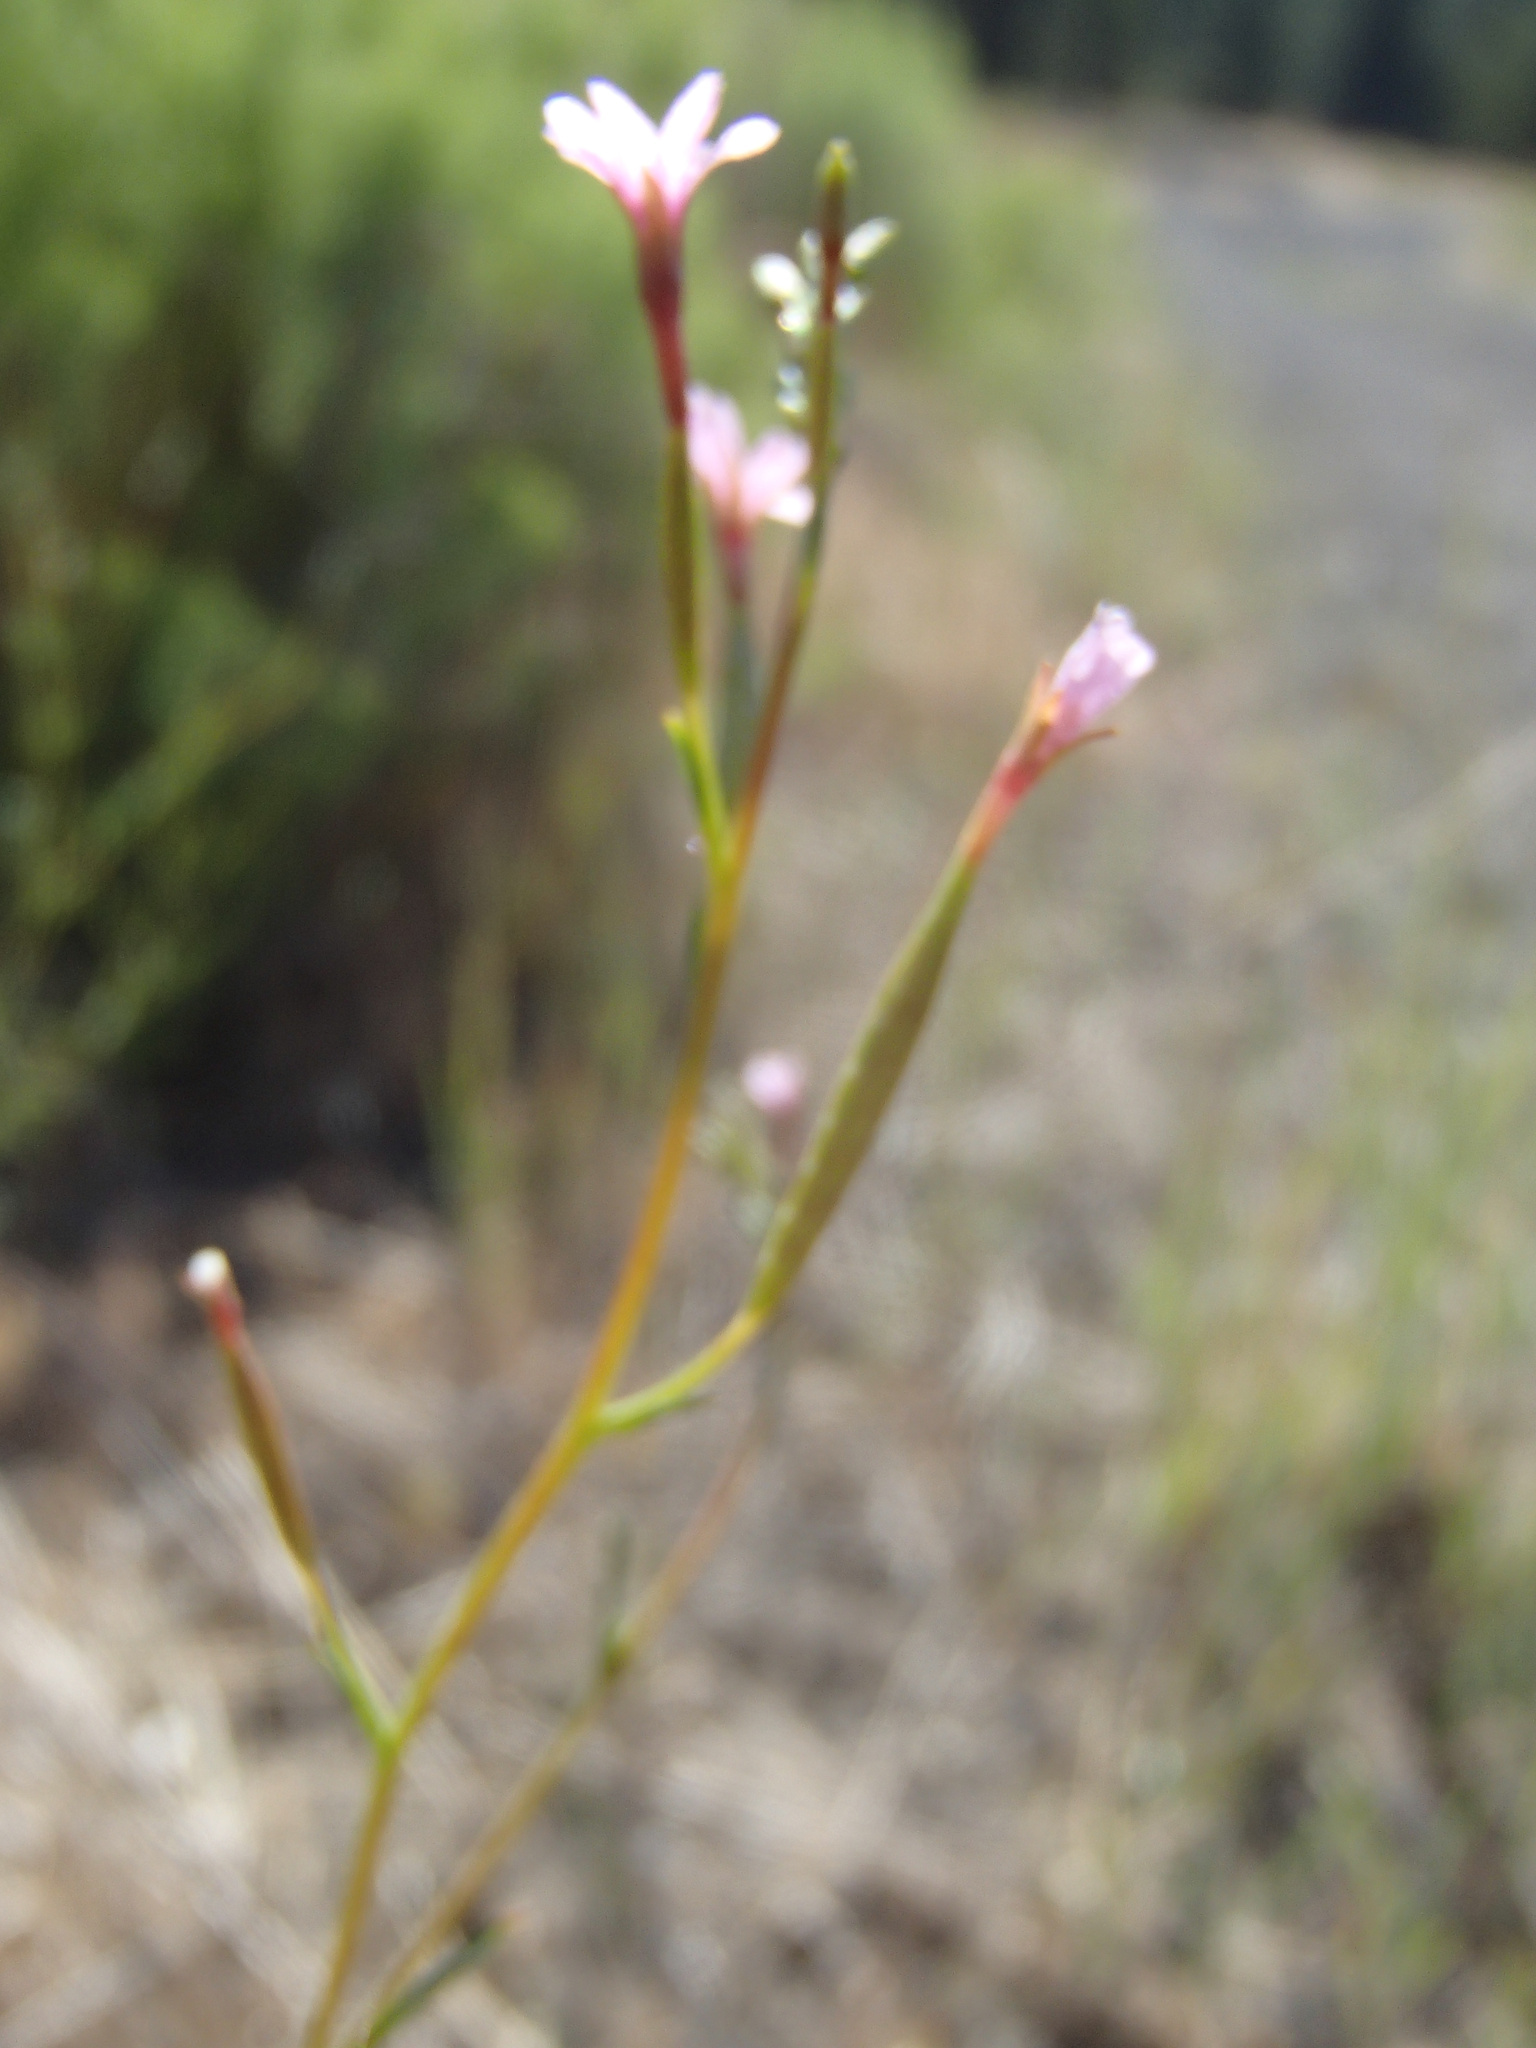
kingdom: Plantae
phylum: Tracheophyta
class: Magnoliopsida
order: Myrtales
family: Onagraceae
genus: Epilobium
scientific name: Epilobium brachycarpum
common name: Annual willowherb
